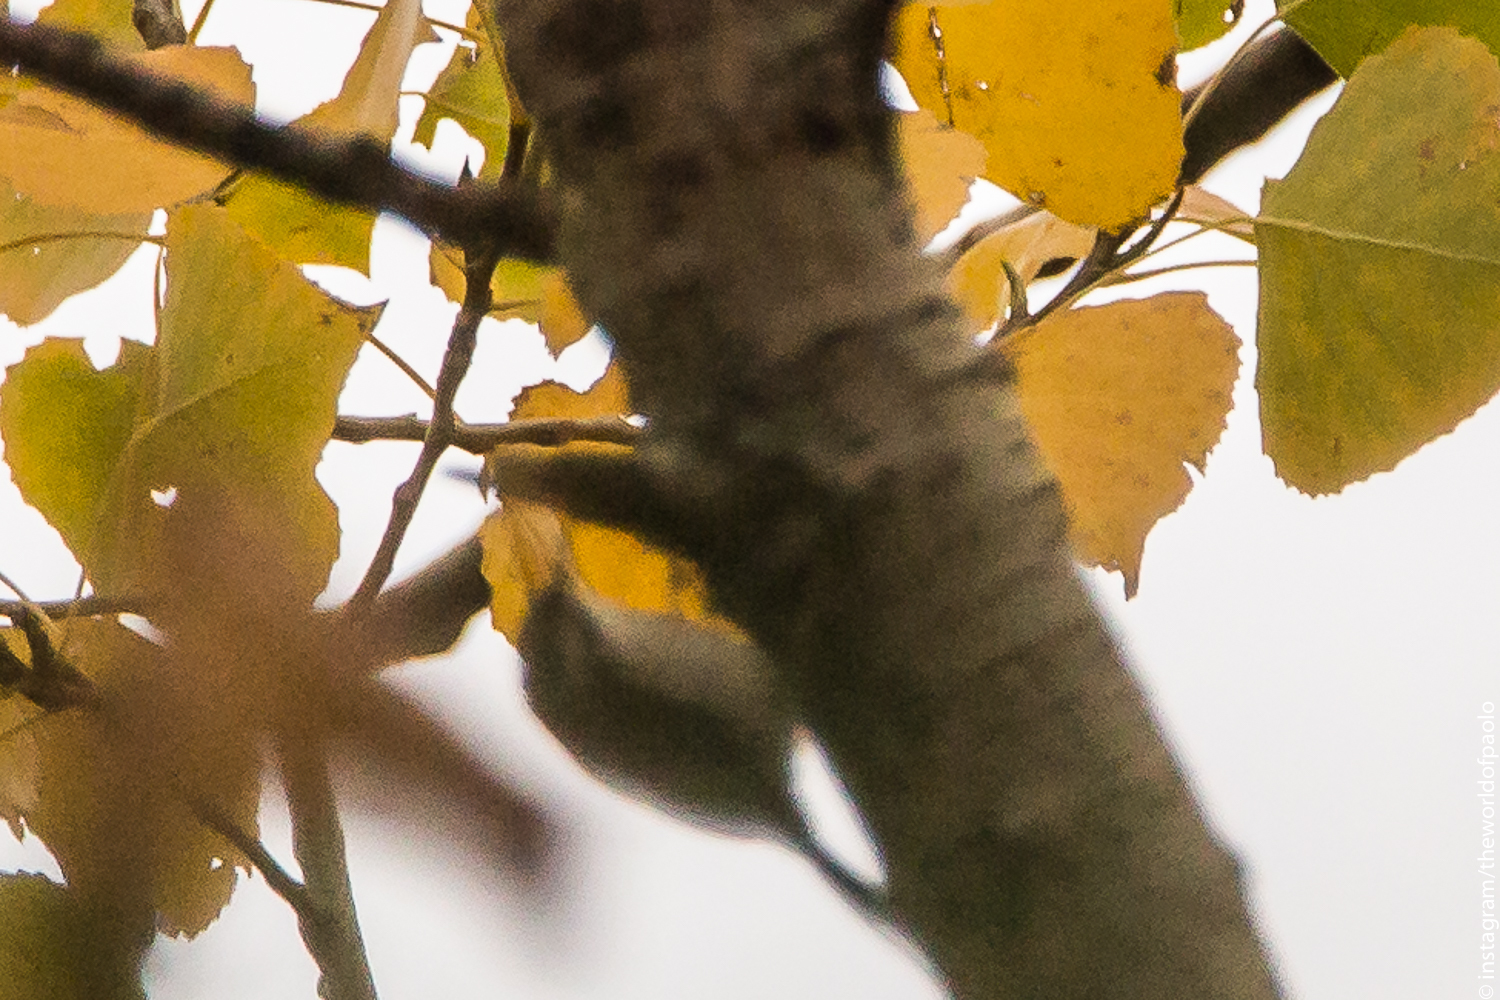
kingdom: Animalia
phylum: Chordata
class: Aves
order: Passeriformes
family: Certhiidae
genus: Certhia
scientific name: Certhia brachydactyla
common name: Short-toed treecreeper
